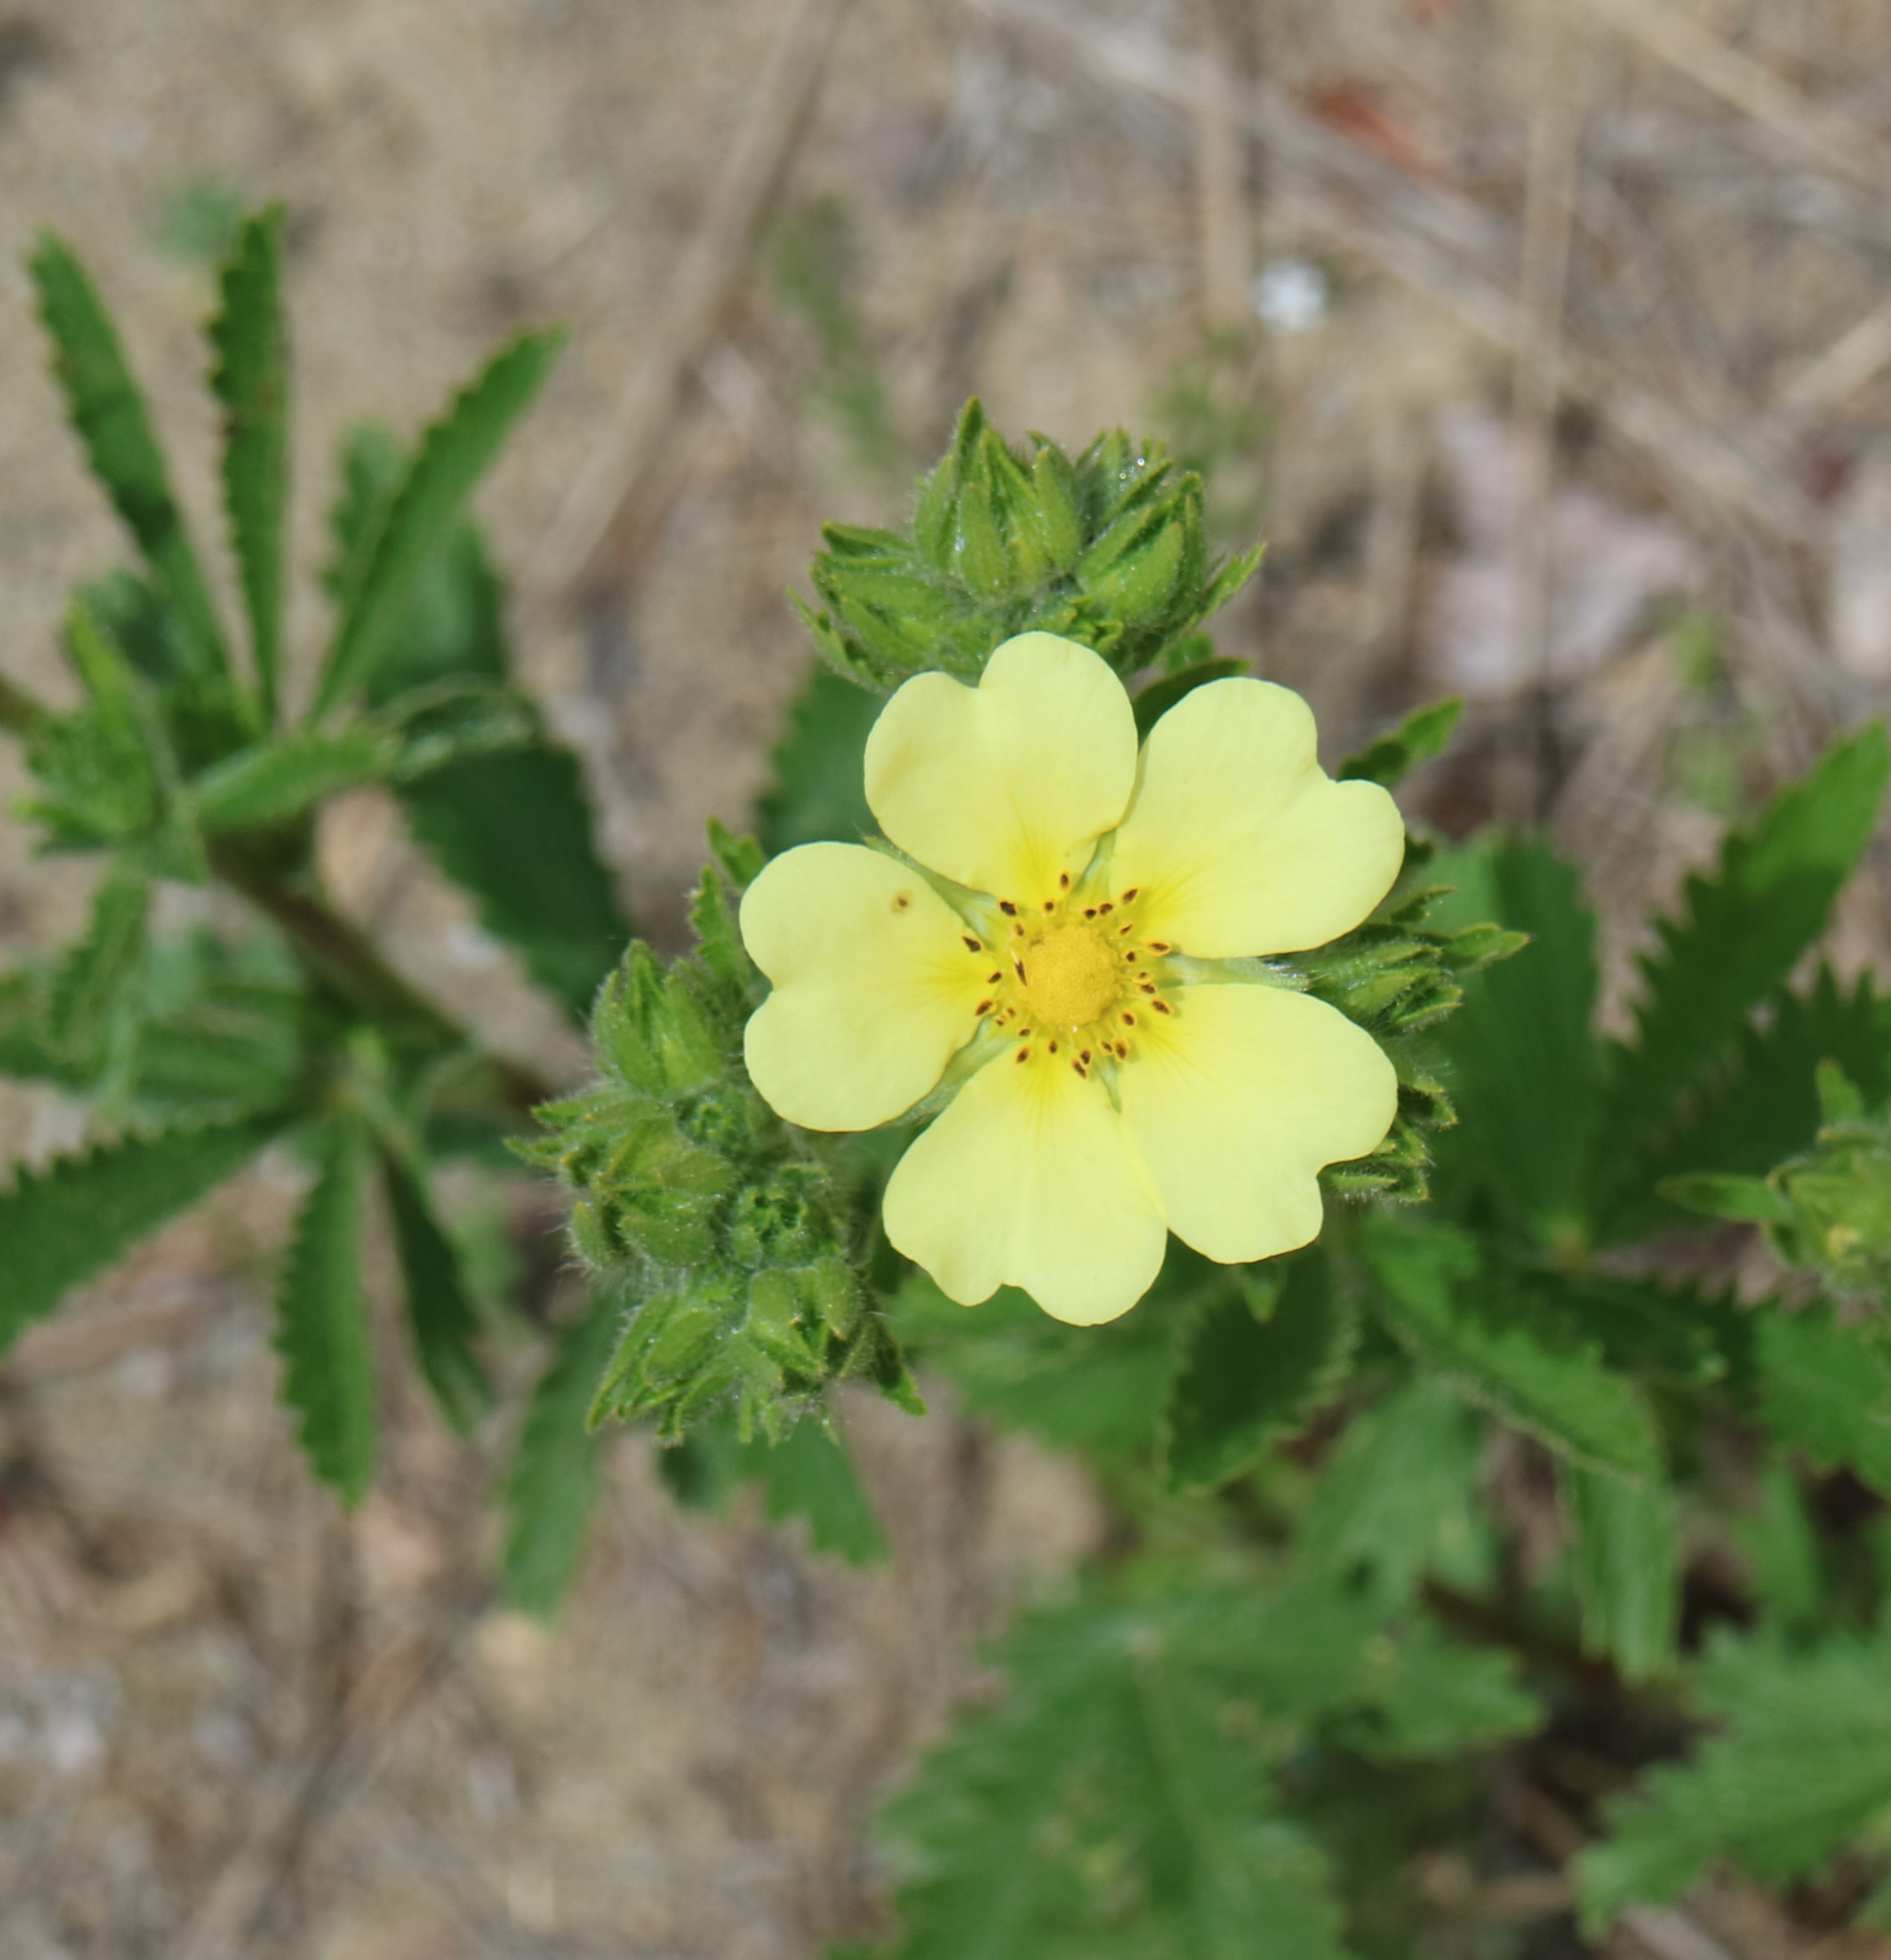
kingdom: Plantae
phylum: Tracheophyta
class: Magnoliopsida
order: Rosales
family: Rosaceae
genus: Potentilla
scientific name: Potentilla recta
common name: Sulphur cinquefoil
